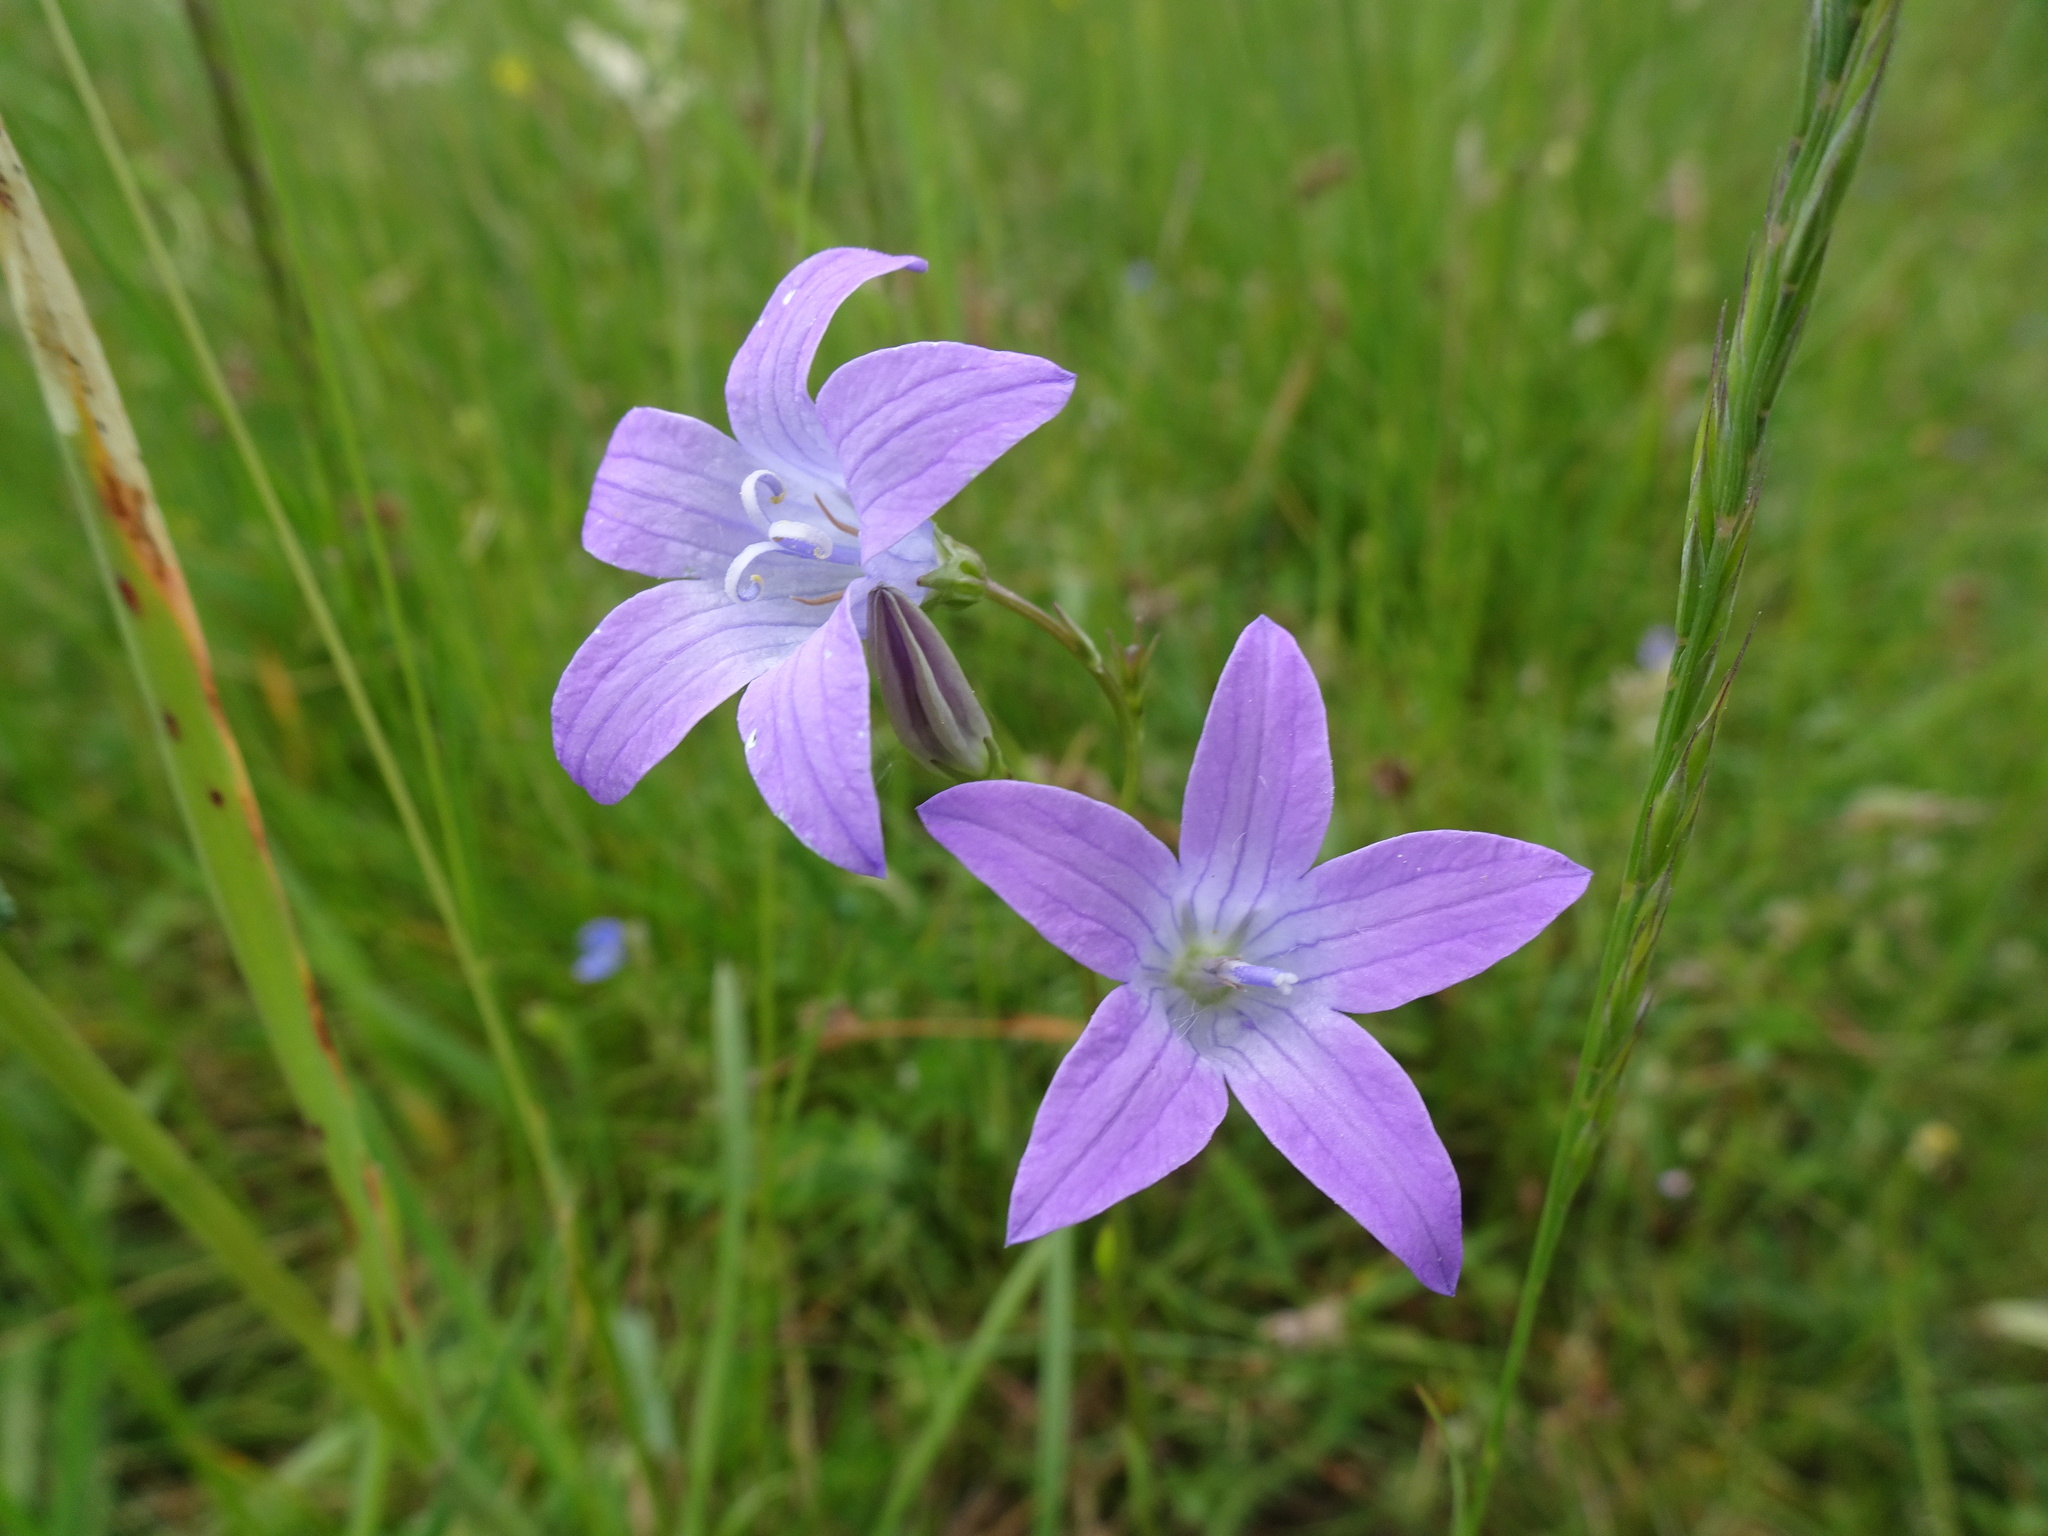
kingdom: Plantae
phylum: Tracheophyta
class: Magnoliopsida
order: Asterales
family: Campanulaceae
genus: Campanula
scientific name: Campanula patula
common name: Spreading bellflower
